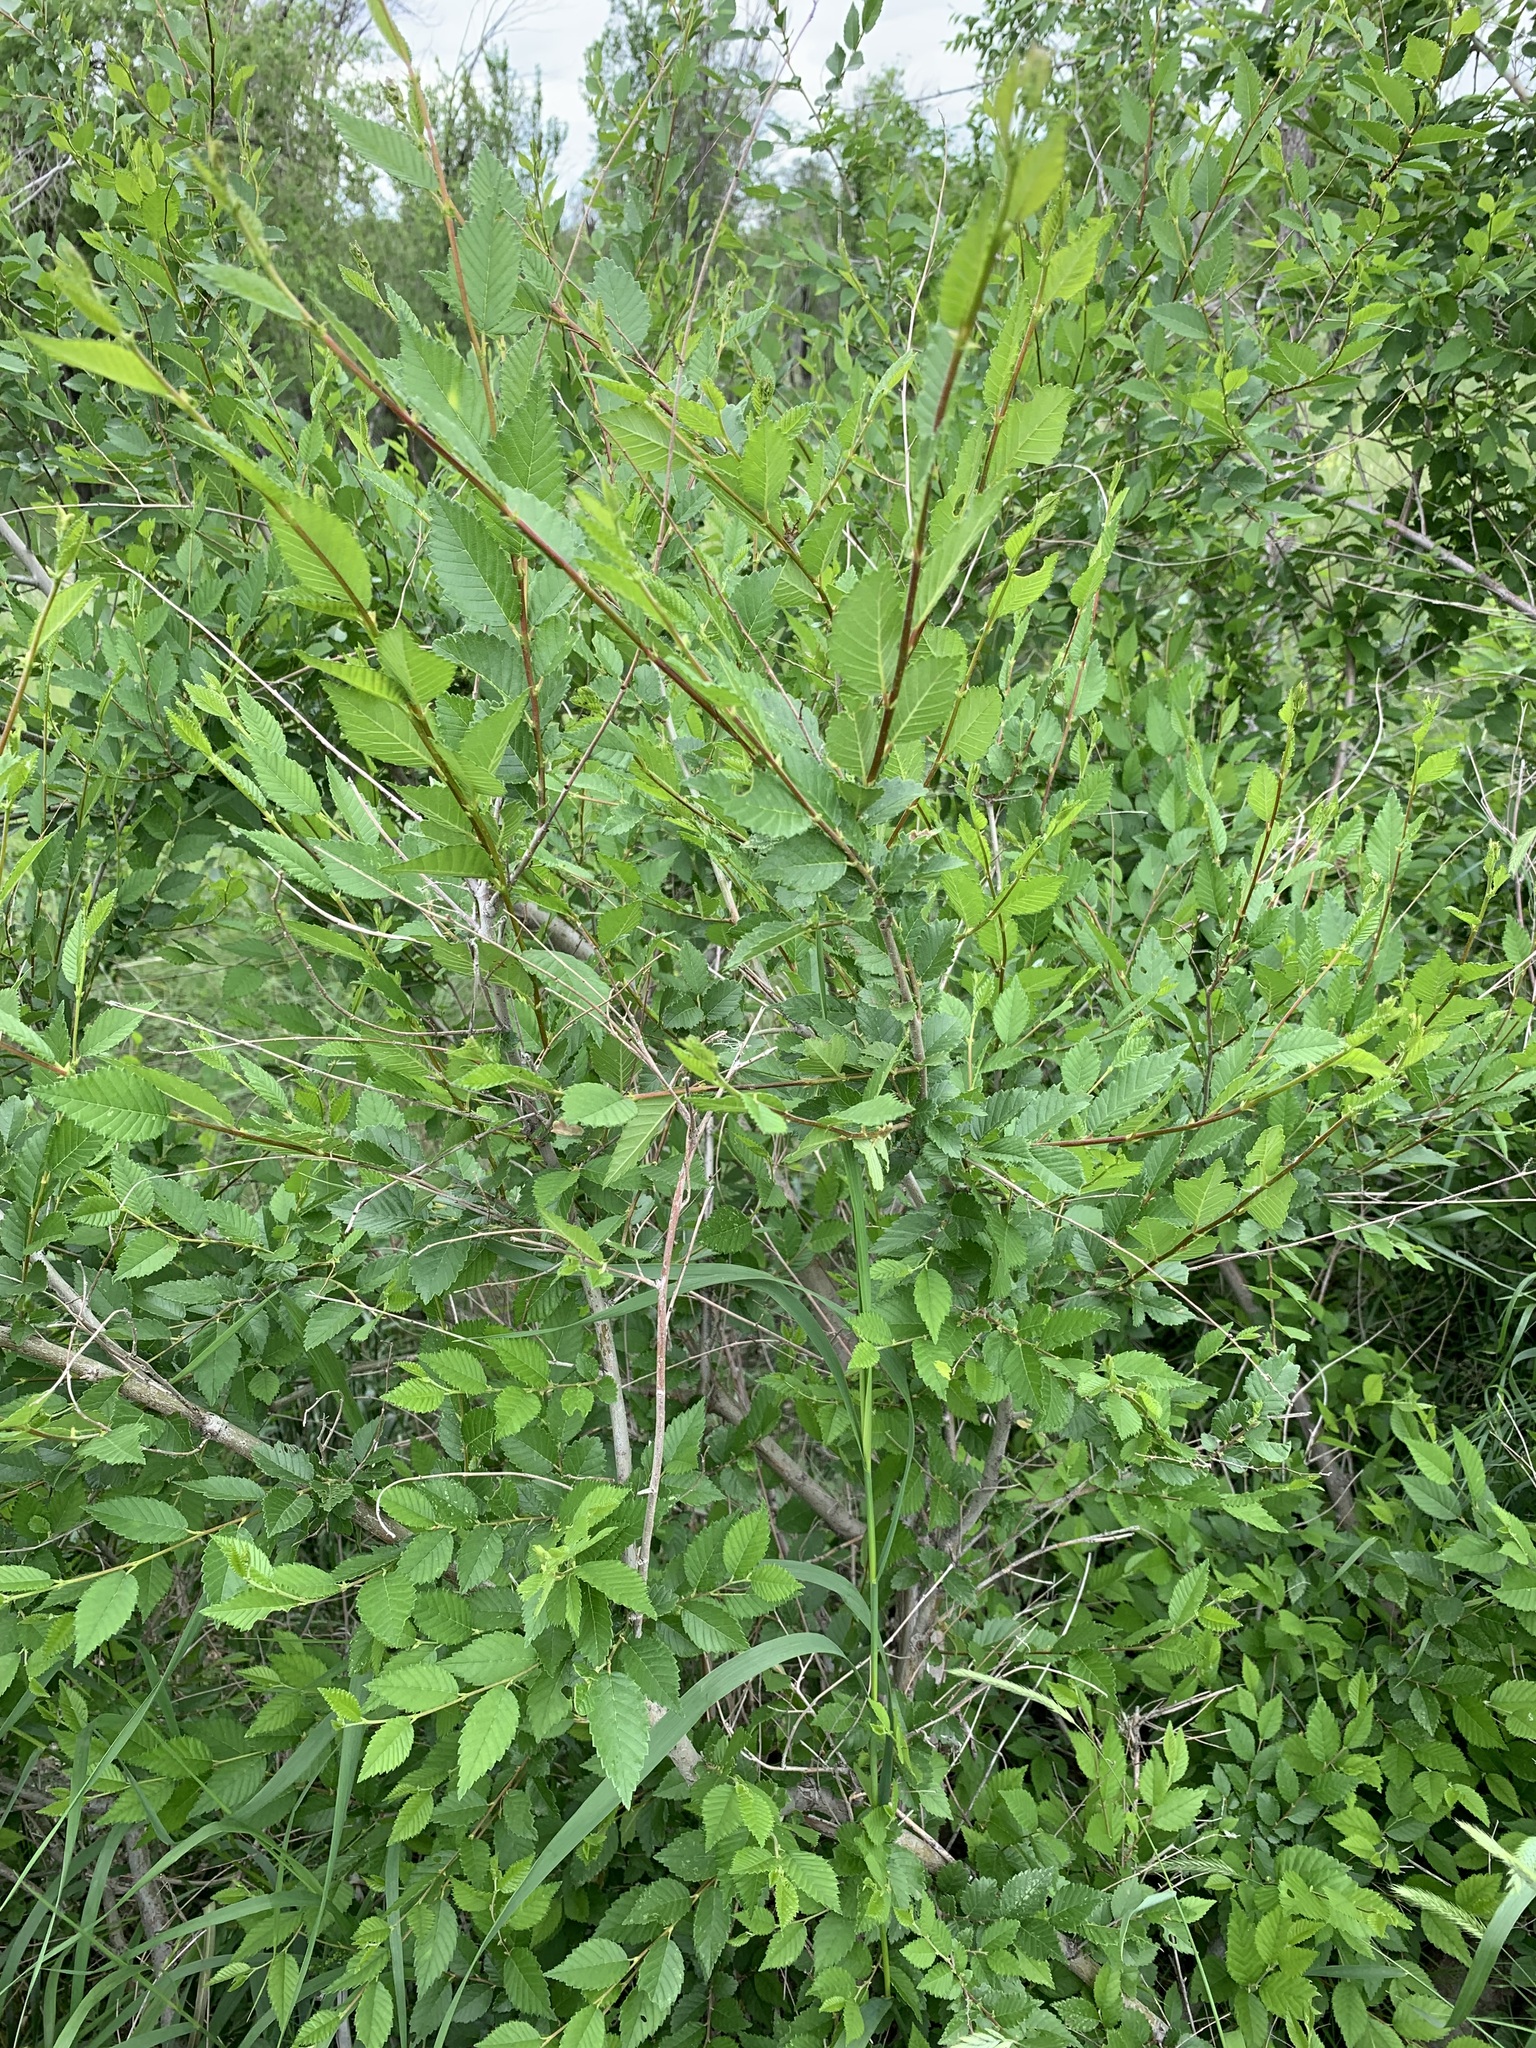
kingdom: Plantae
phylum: Tracheophyta
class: Magnoliopsida
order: Rosales
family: Ulmaceae
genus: Ulmus
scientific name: Ulmus pumila
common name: Siberian elm
